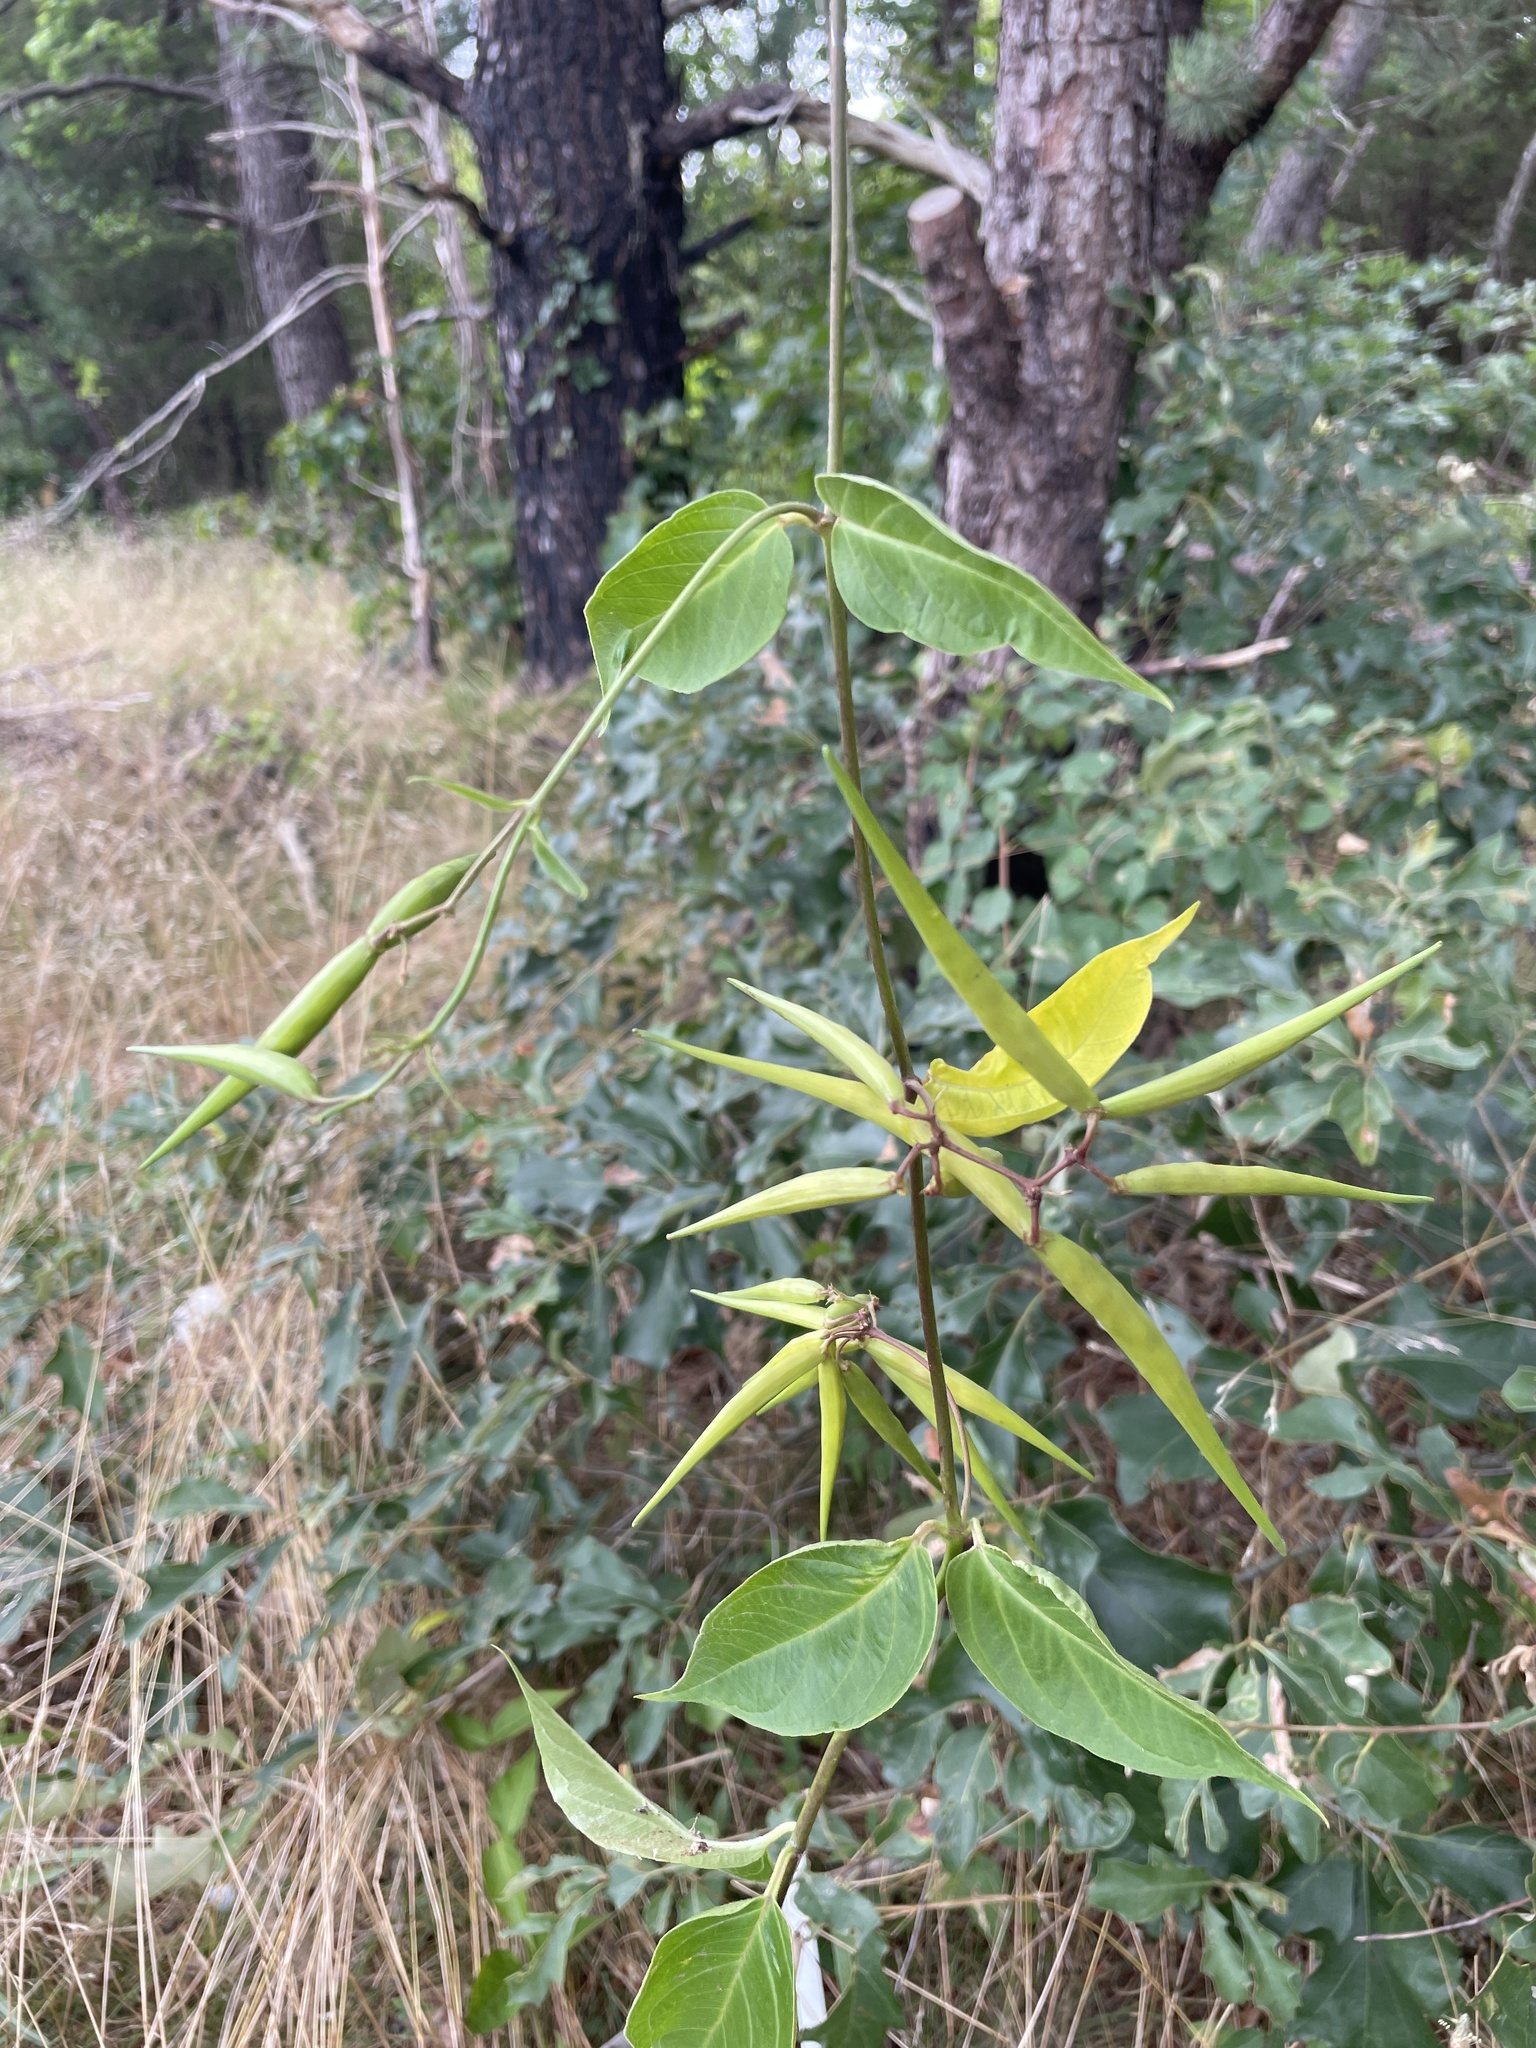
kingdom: Plantae
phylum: Tracheophyta
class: Magnoliopsida
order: Gentianales
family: Apocynaceae
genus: Vincetoxicum
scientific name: Vincetoxicum rossicum
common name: Dog-strangling vine
